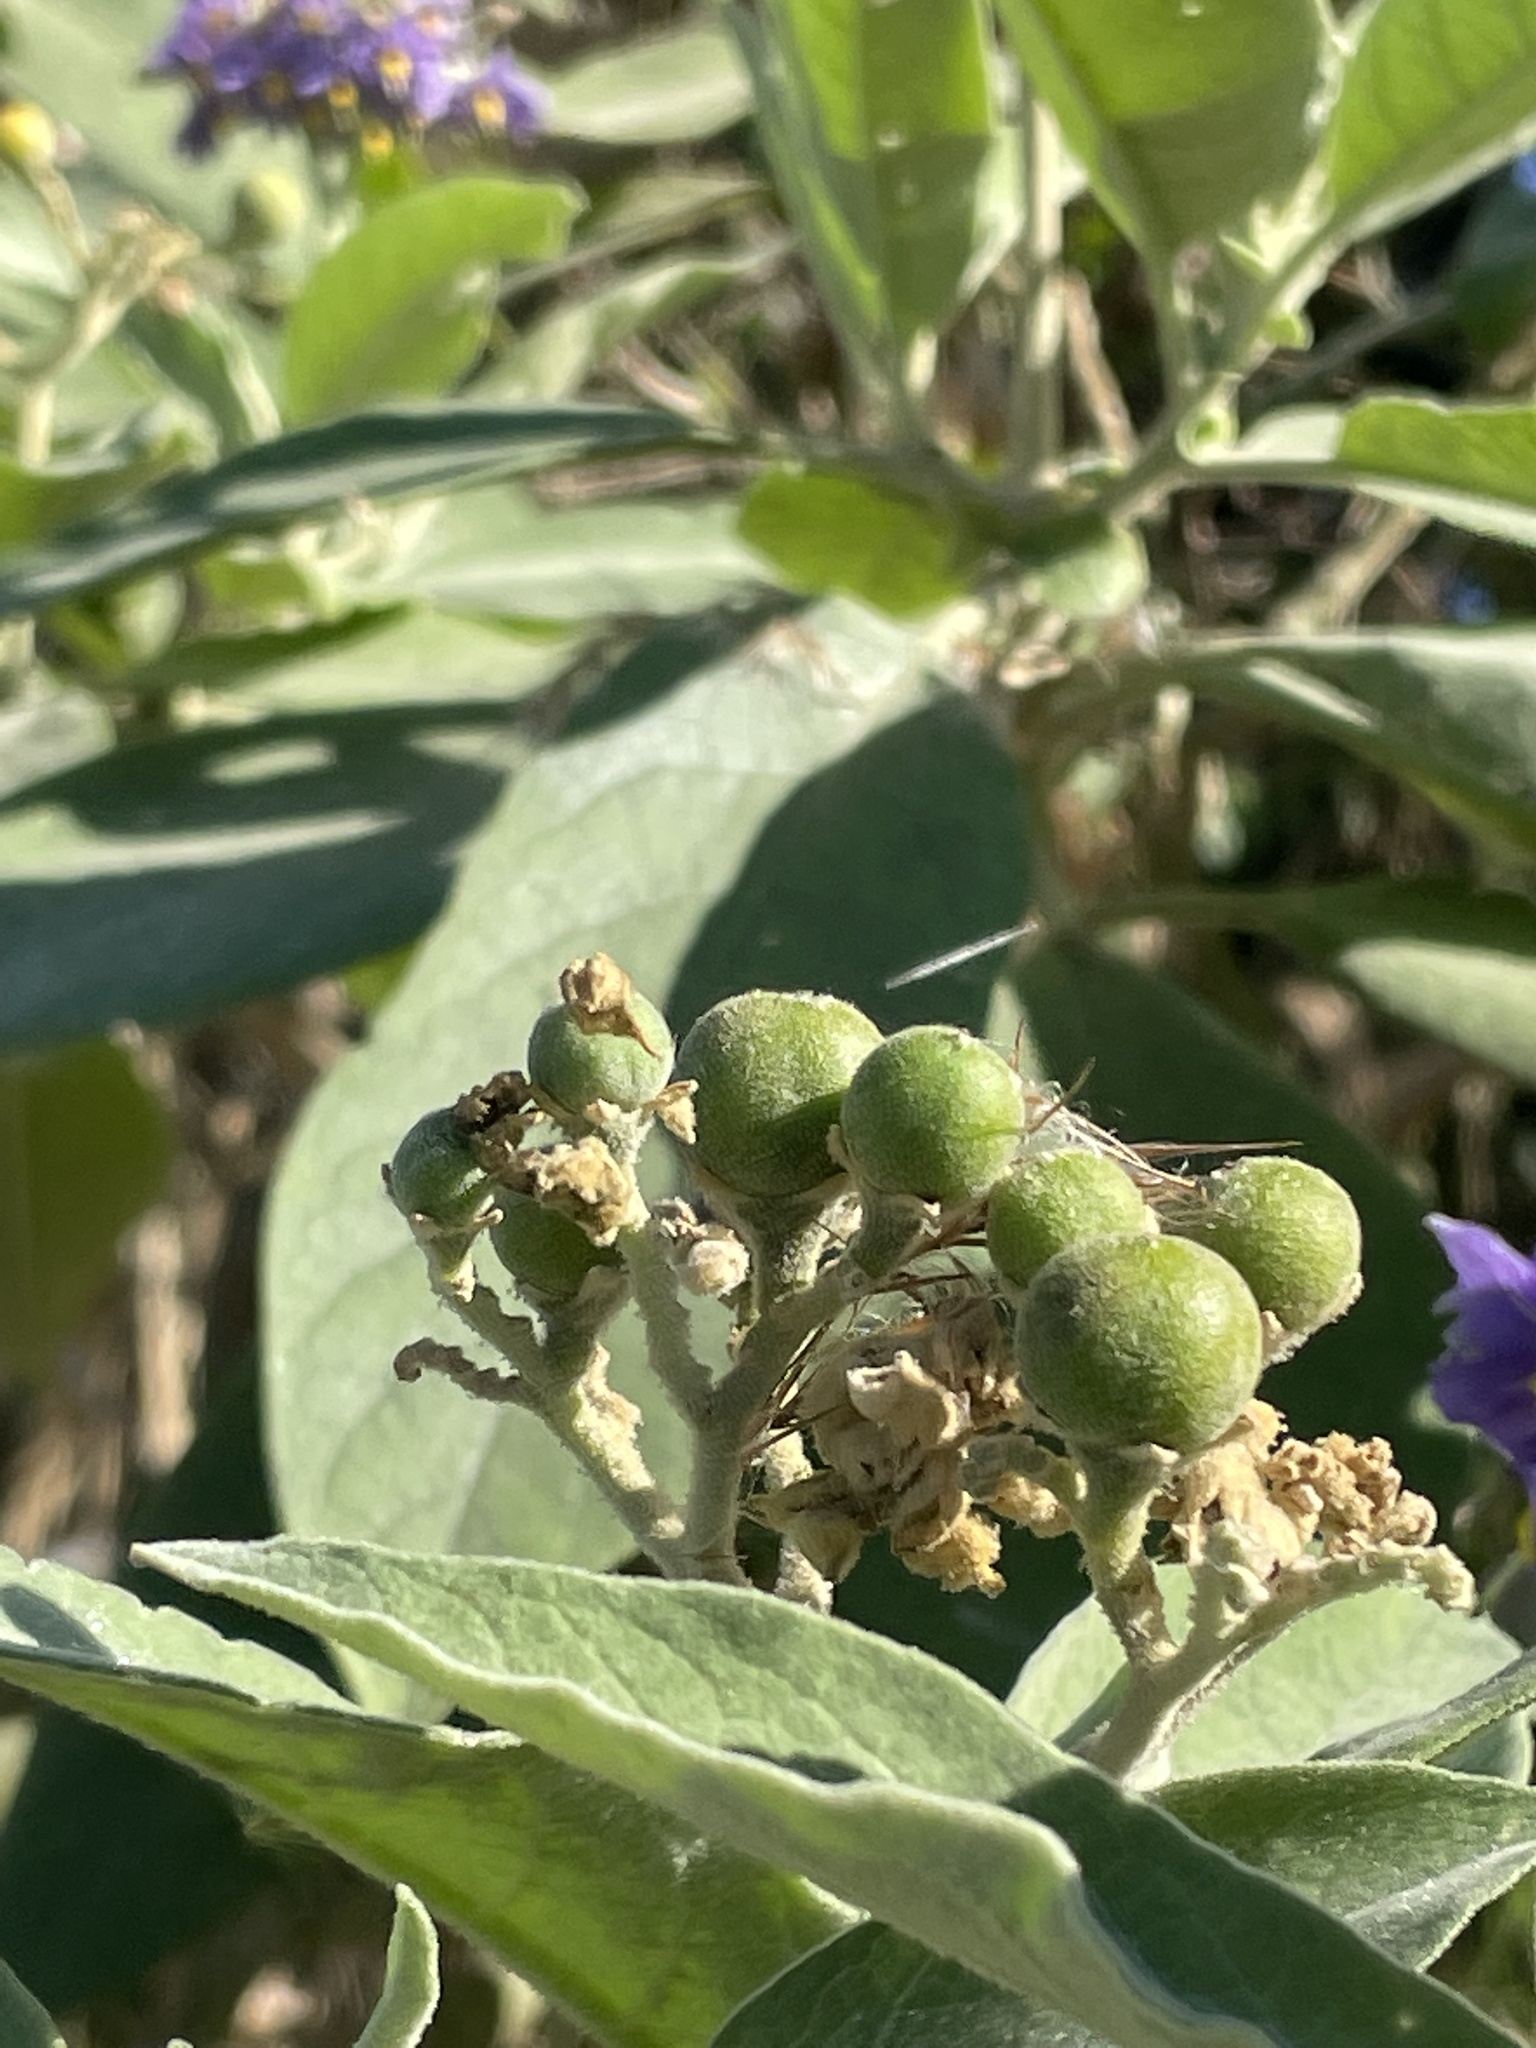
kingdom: Plantae
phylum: Tracheophyta
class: Magnoliopsida
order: Solanales
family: Solanaceae
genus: Solanum
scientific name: Solanum mauritianum
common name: Earleaf nightshade
